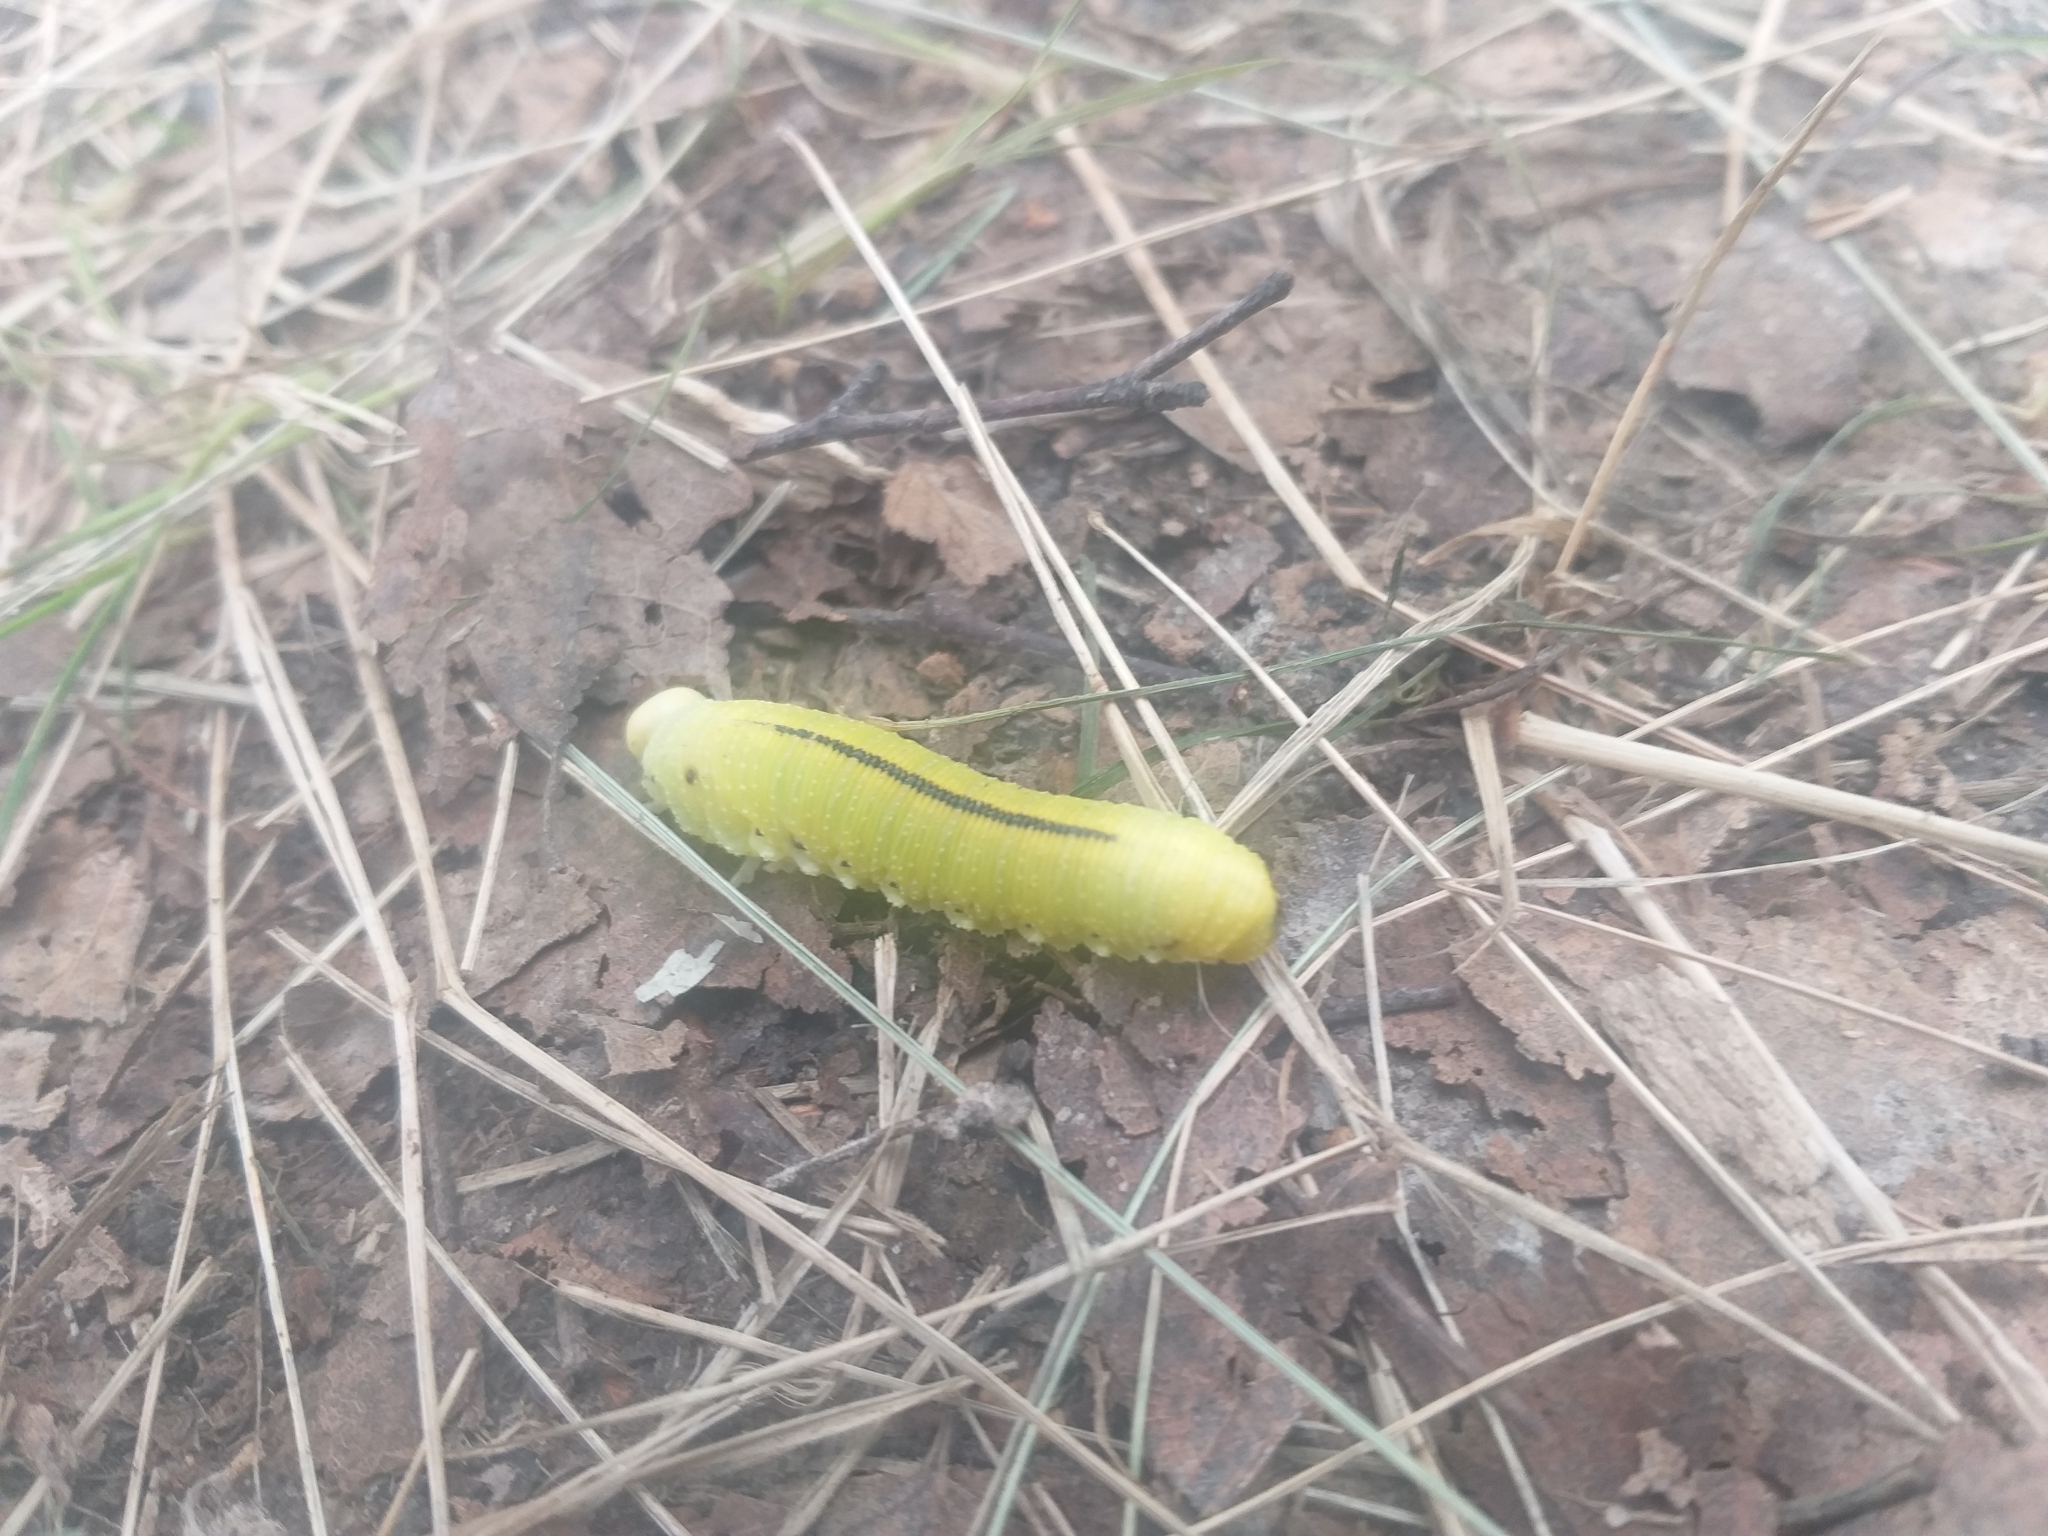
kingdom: Animalia
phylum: Arthropoda
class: Insecta
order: Hymenoptera
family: Cimbicidae
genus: Cimbex
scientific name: Cimbex femoratus
